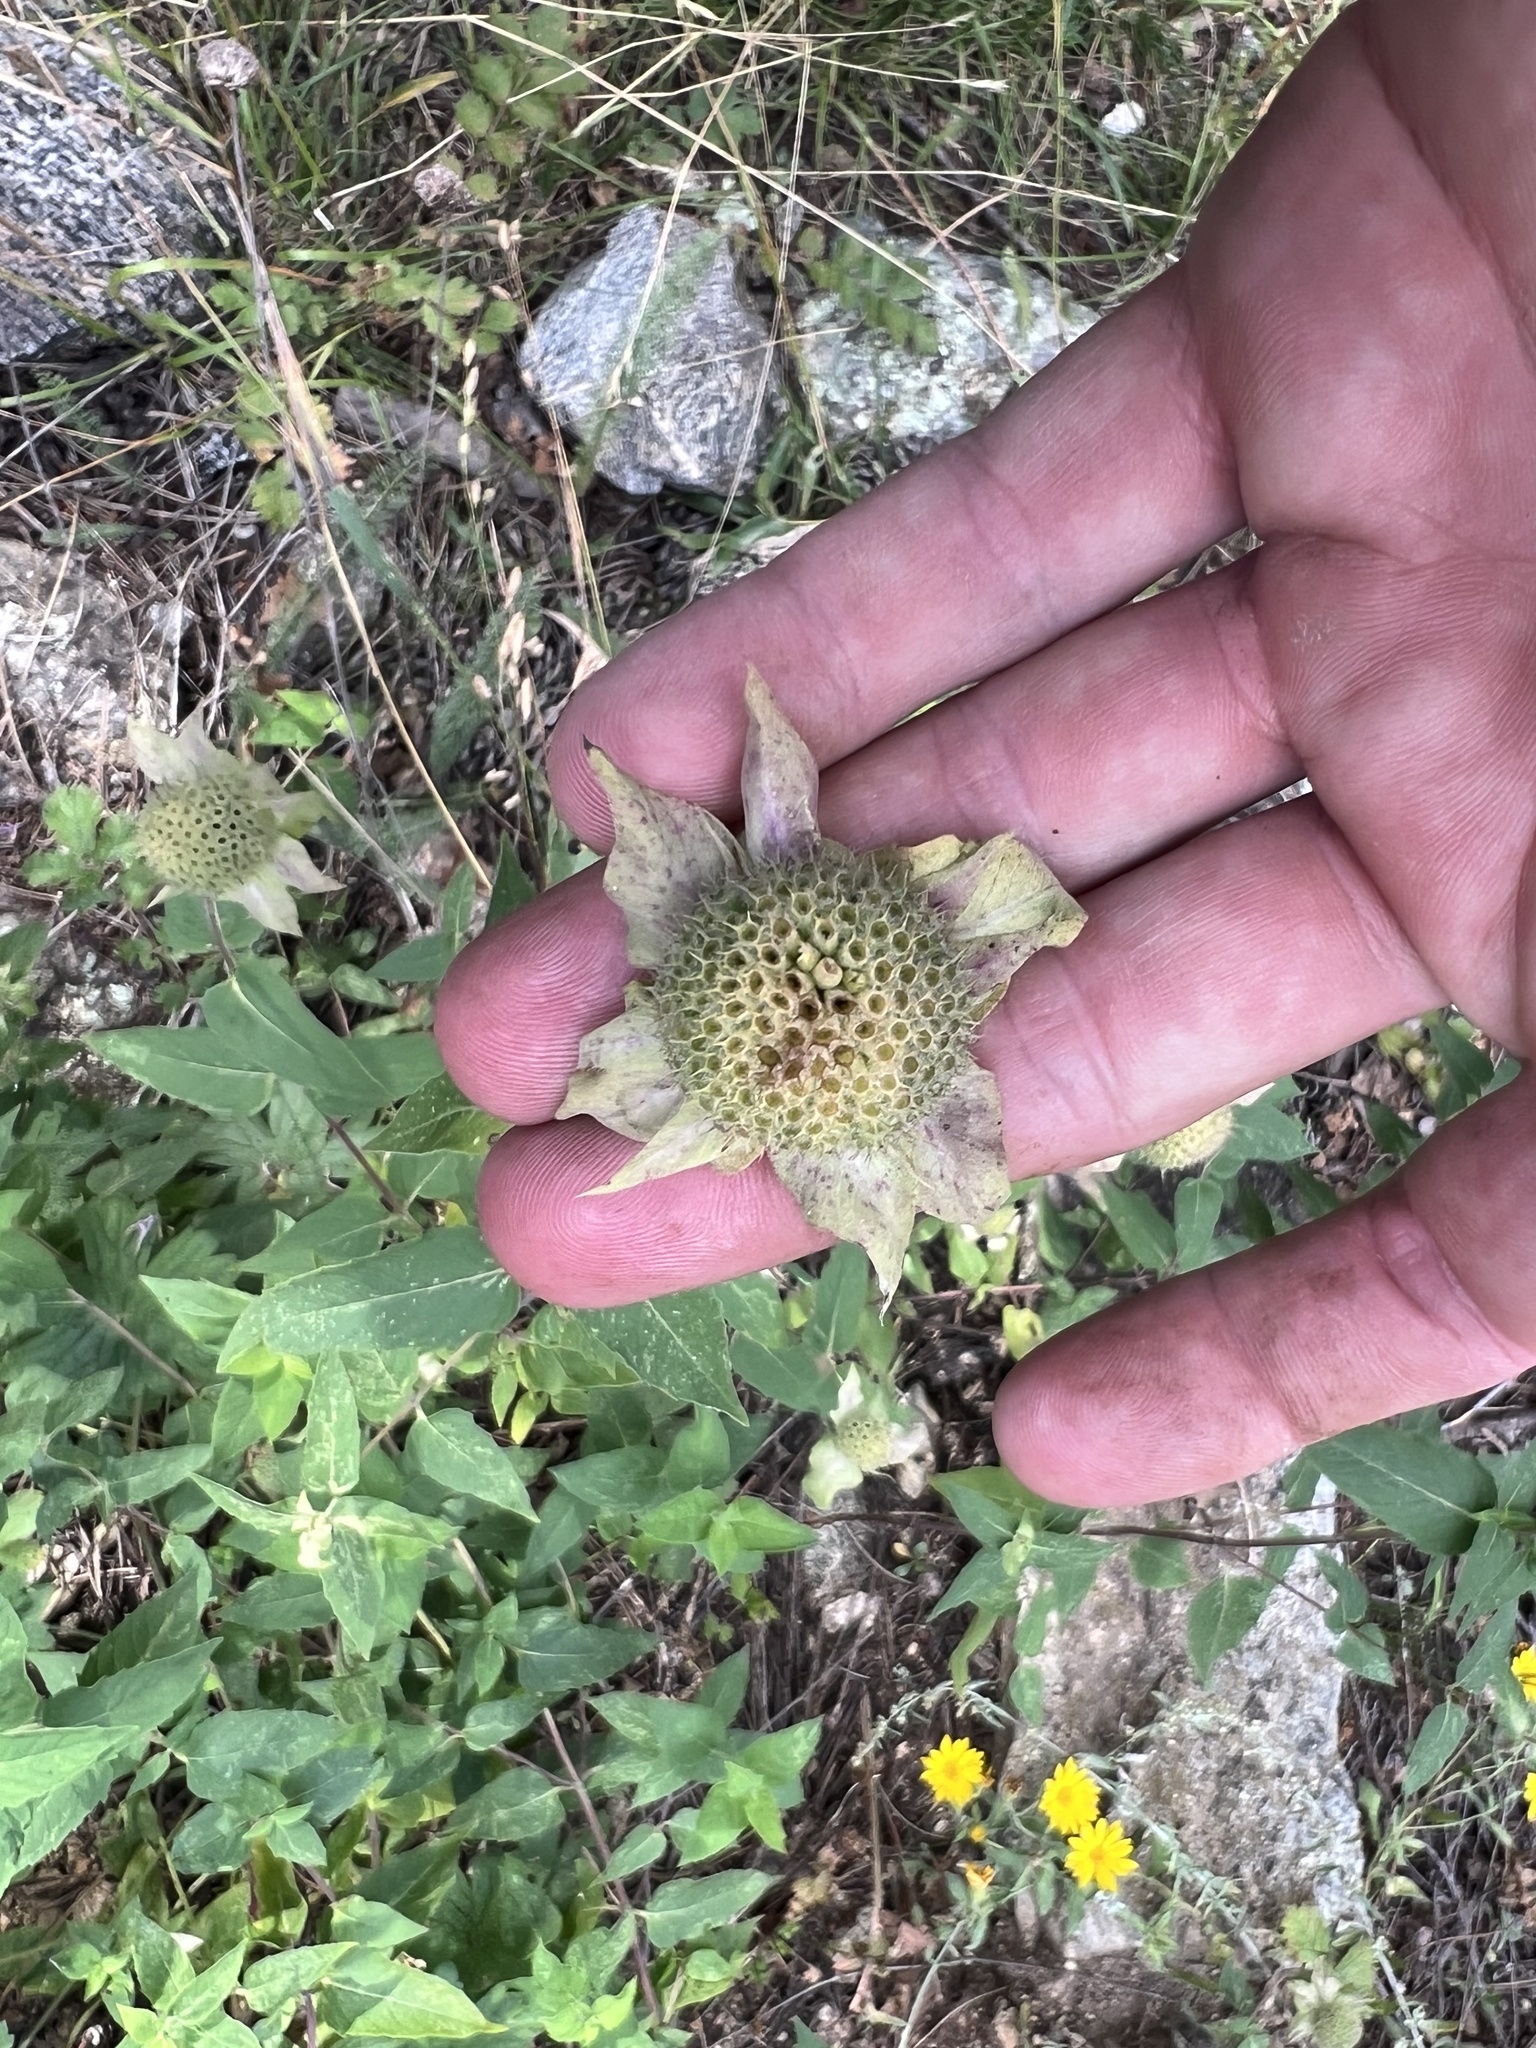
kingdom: Plantae
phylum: Tracheophyta
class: Magnoliopsida
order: Lamiales
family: Lamiaceae
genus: Monarda
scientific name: Monarda fistulosa
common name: Purple beebalm
